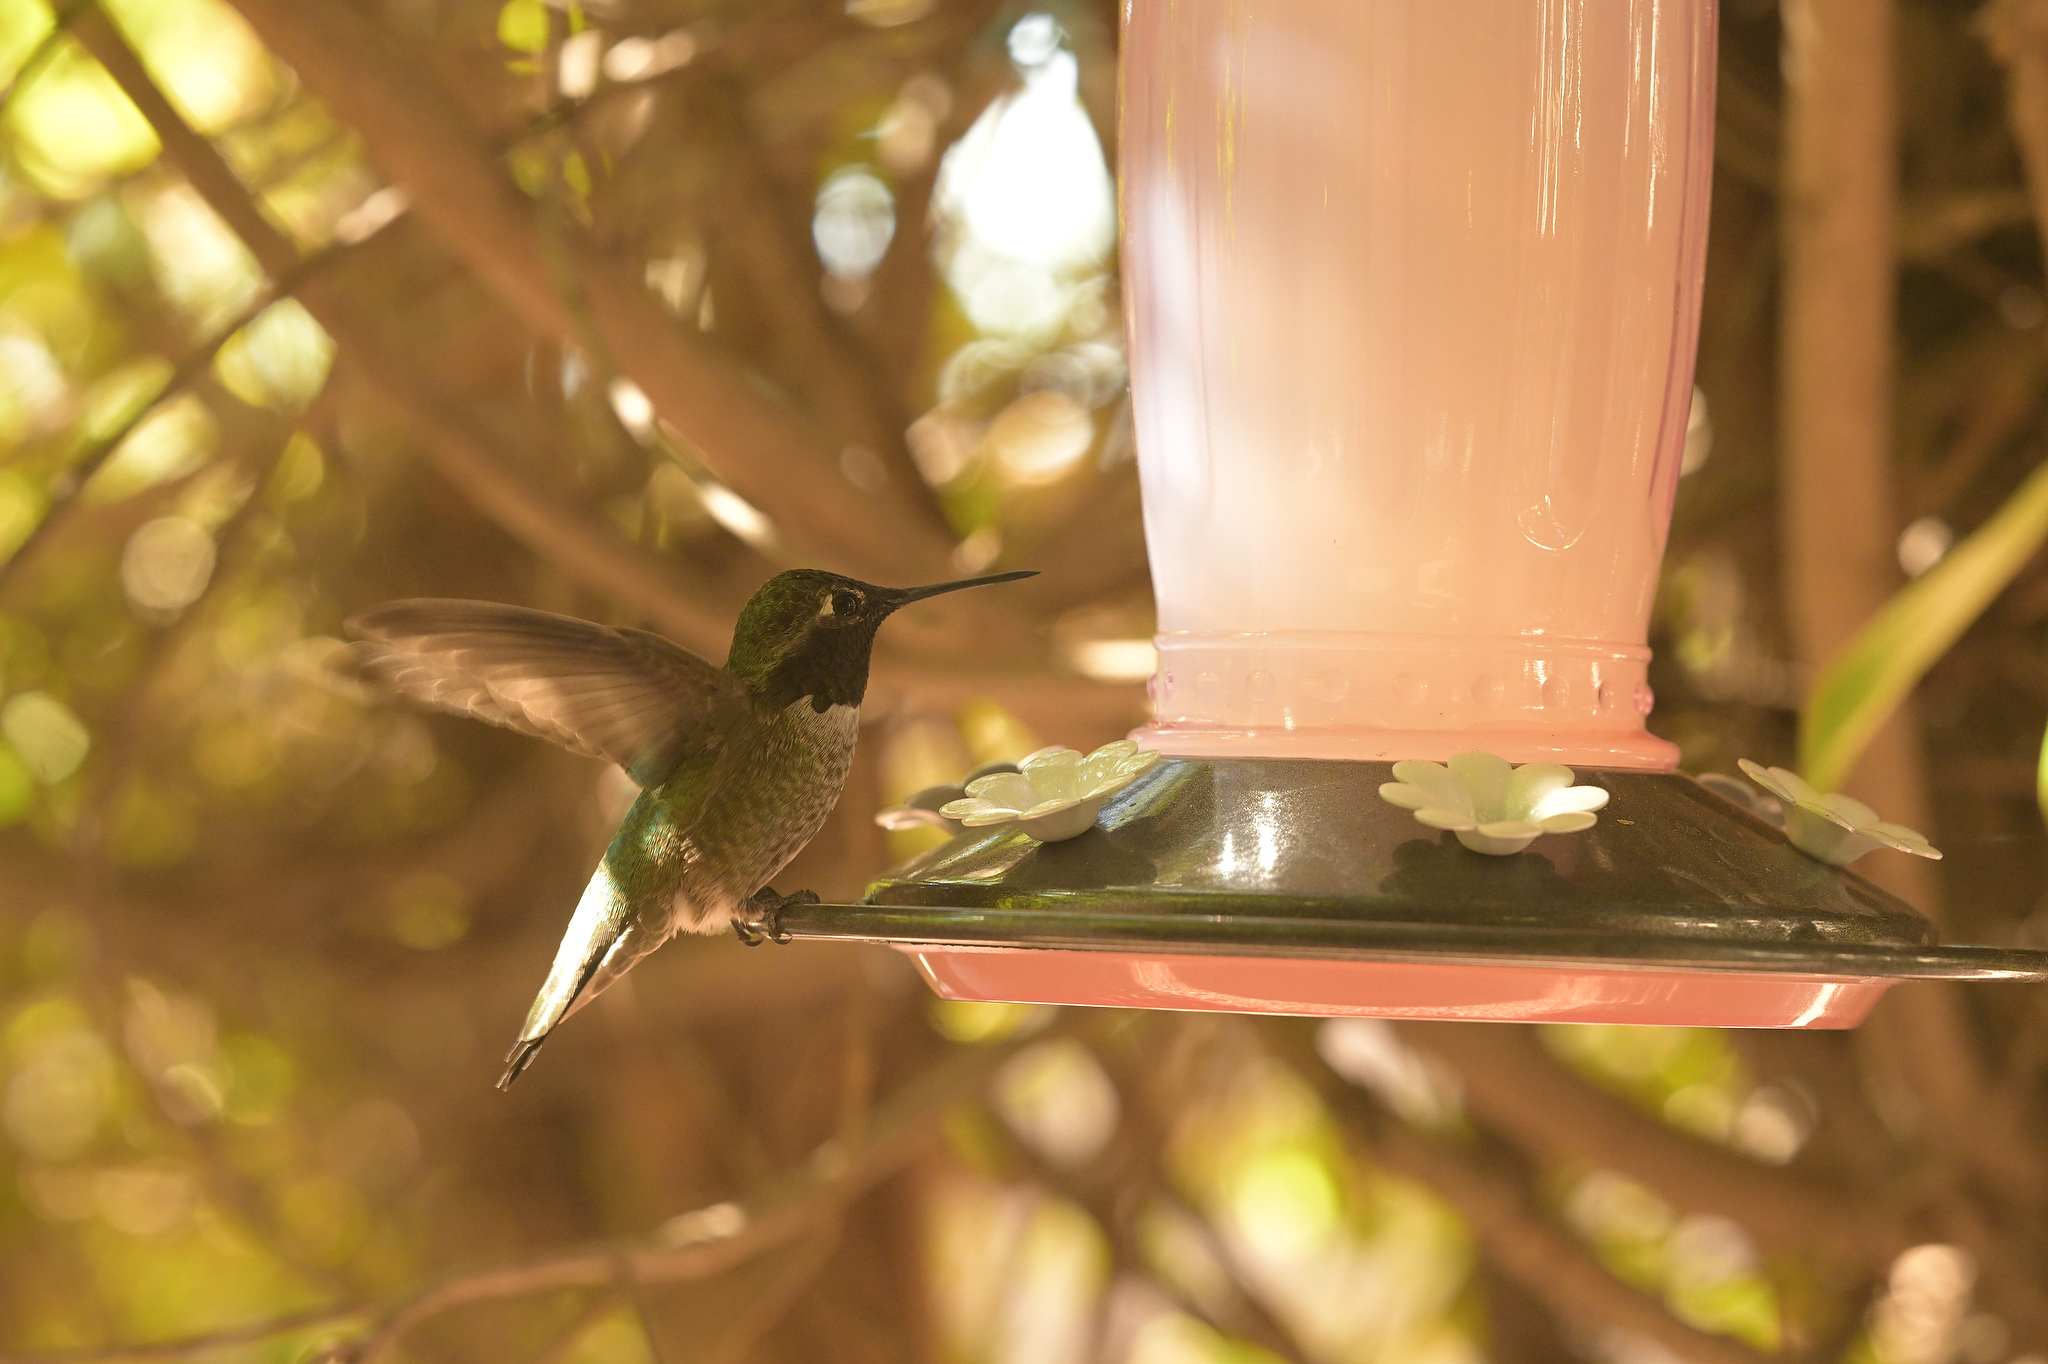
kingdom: Animalia
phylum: Chordata
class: Aves
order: Apodiformes
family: Trochilidae
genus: Calypte
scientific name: Calypte anna
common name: Anna's hummingbird
